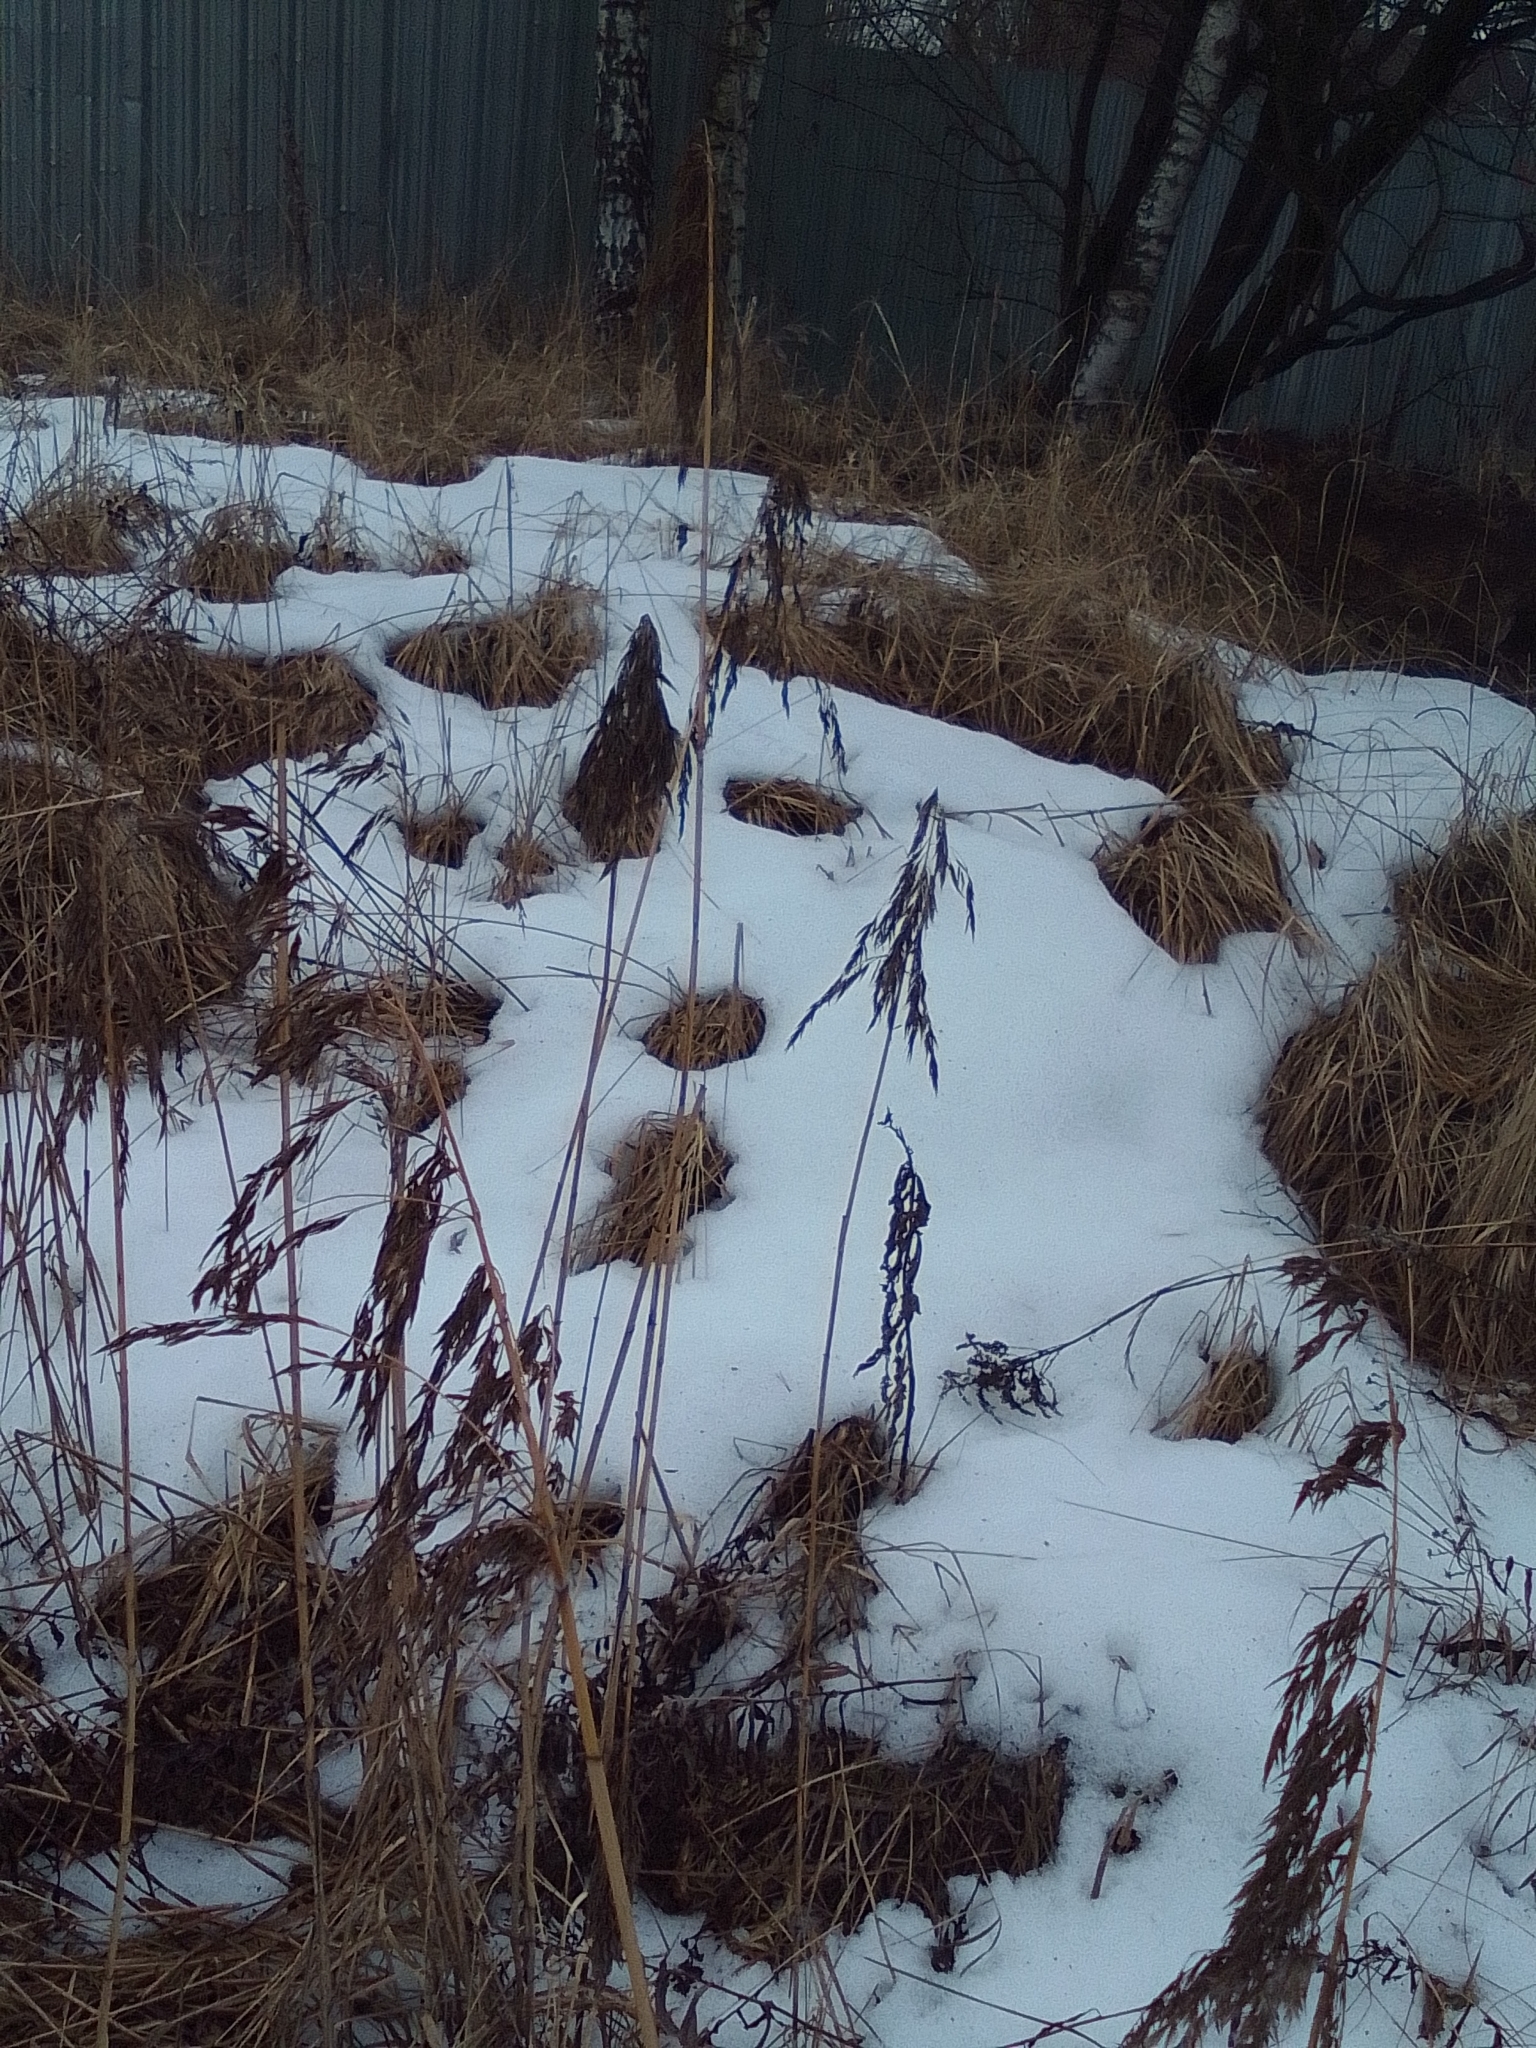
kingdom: Plantae
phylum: Tracheophyta
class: Liliopsida
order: Poales
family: Poaceae
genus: Phragmites
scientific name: Phragmites australis
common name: Common reed
